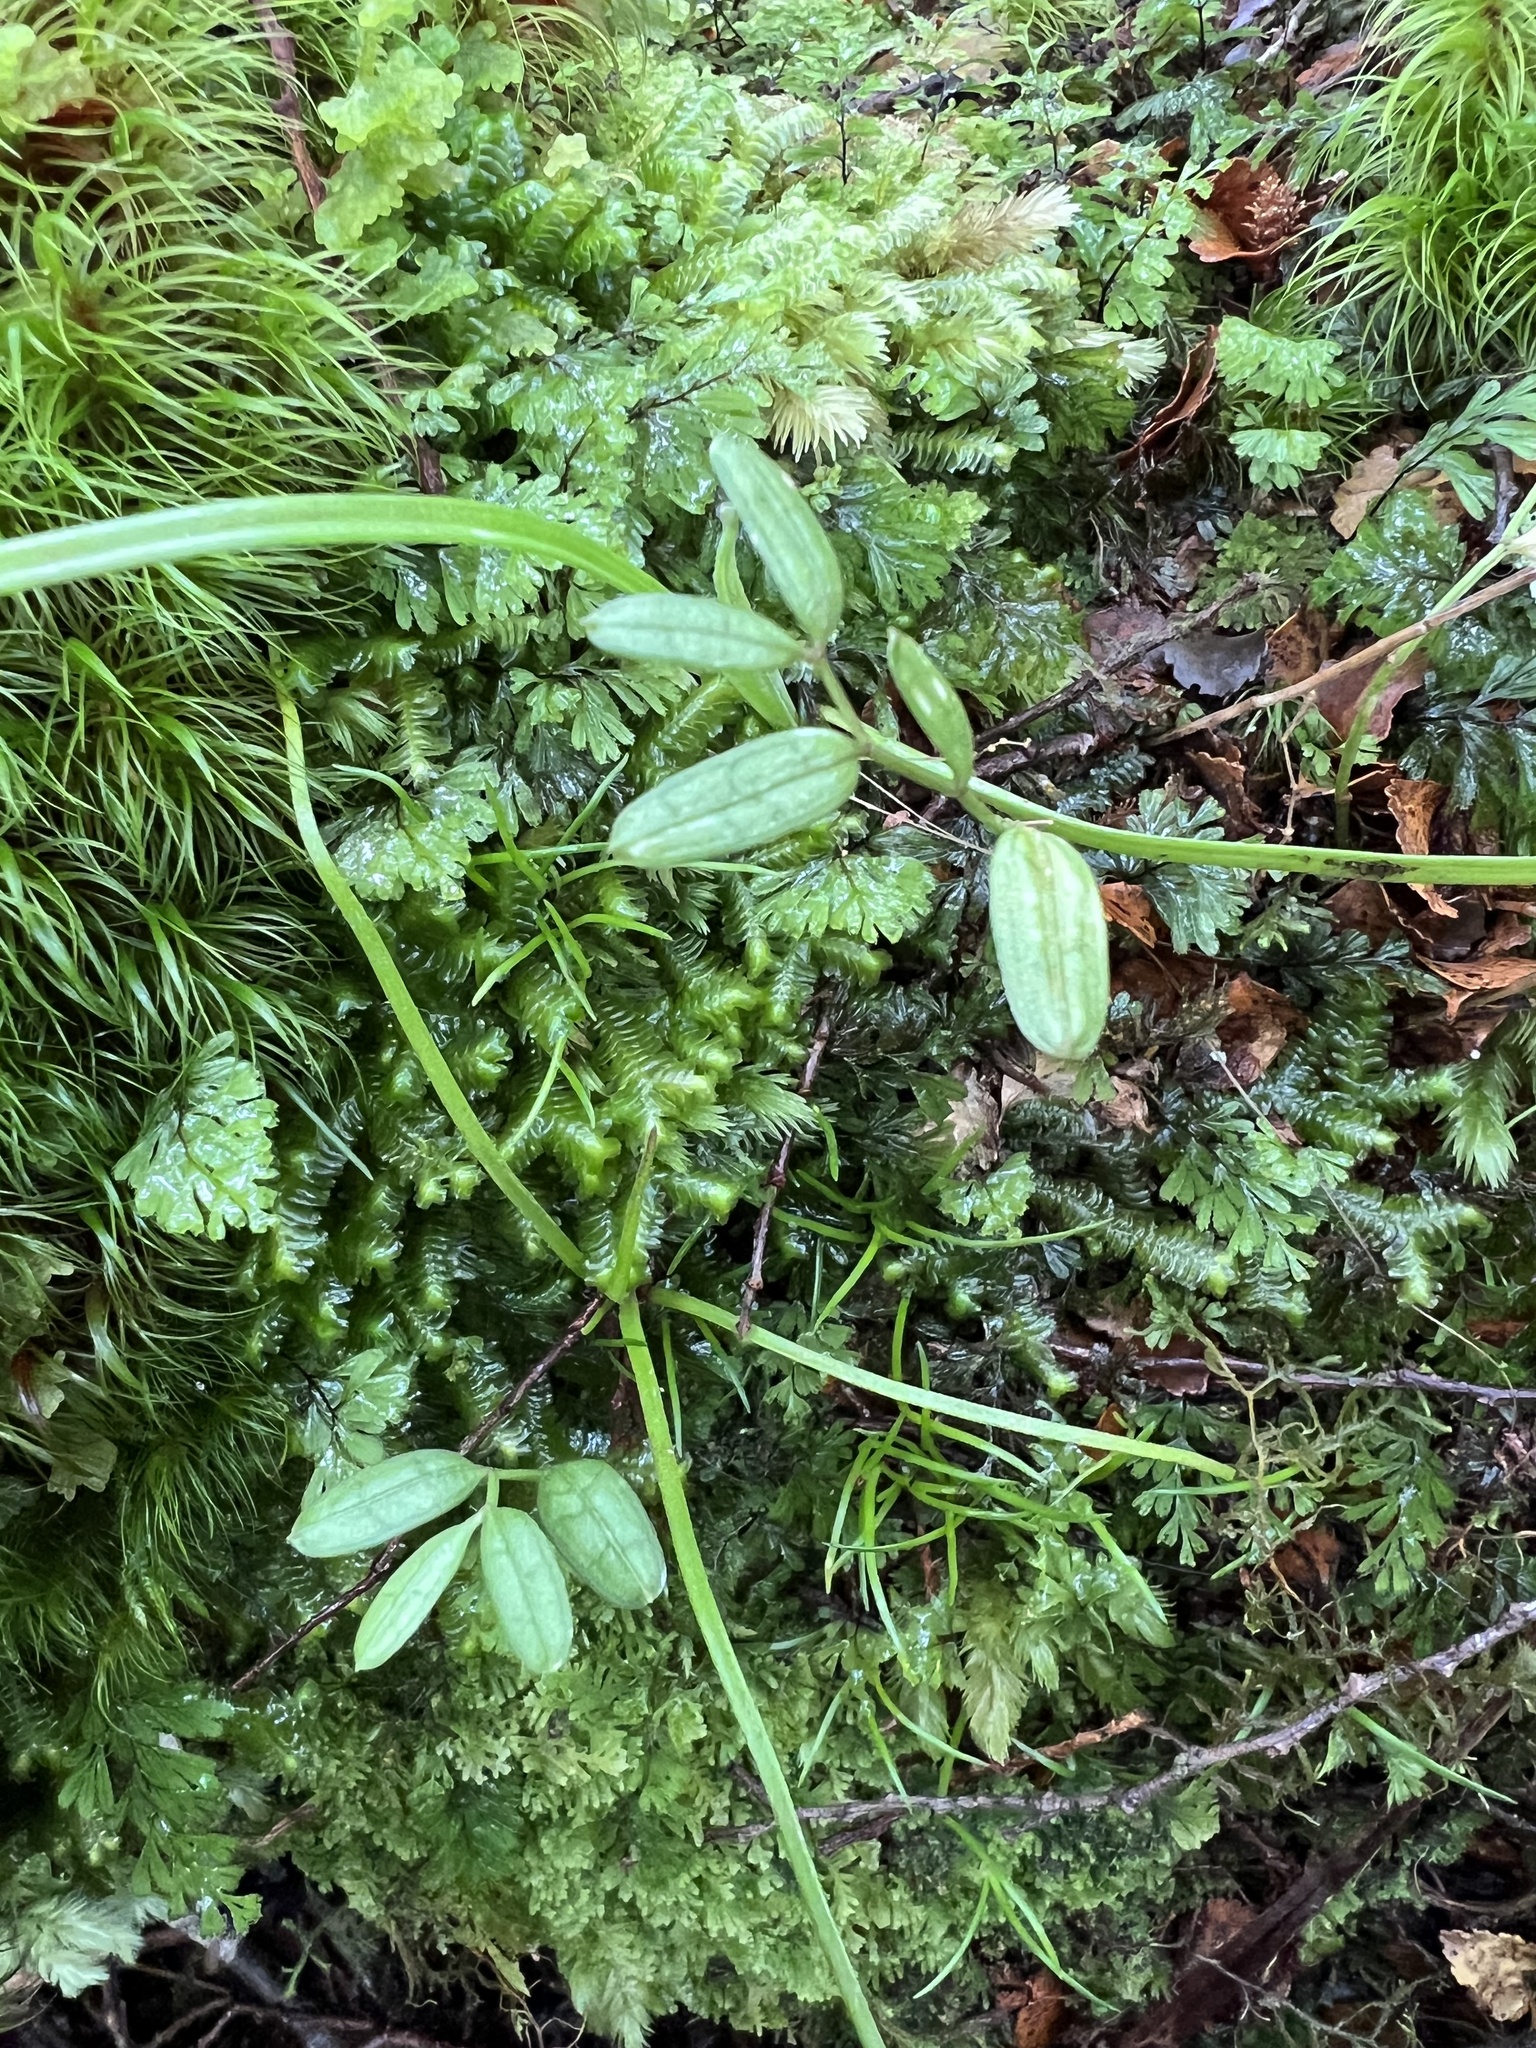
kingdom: Plantae
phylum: Tracheophyta
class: Liliopsida
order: Liliales
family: Alstroemeriaceae
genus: Luzuriaga
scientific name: Luzuriaga parviflora
